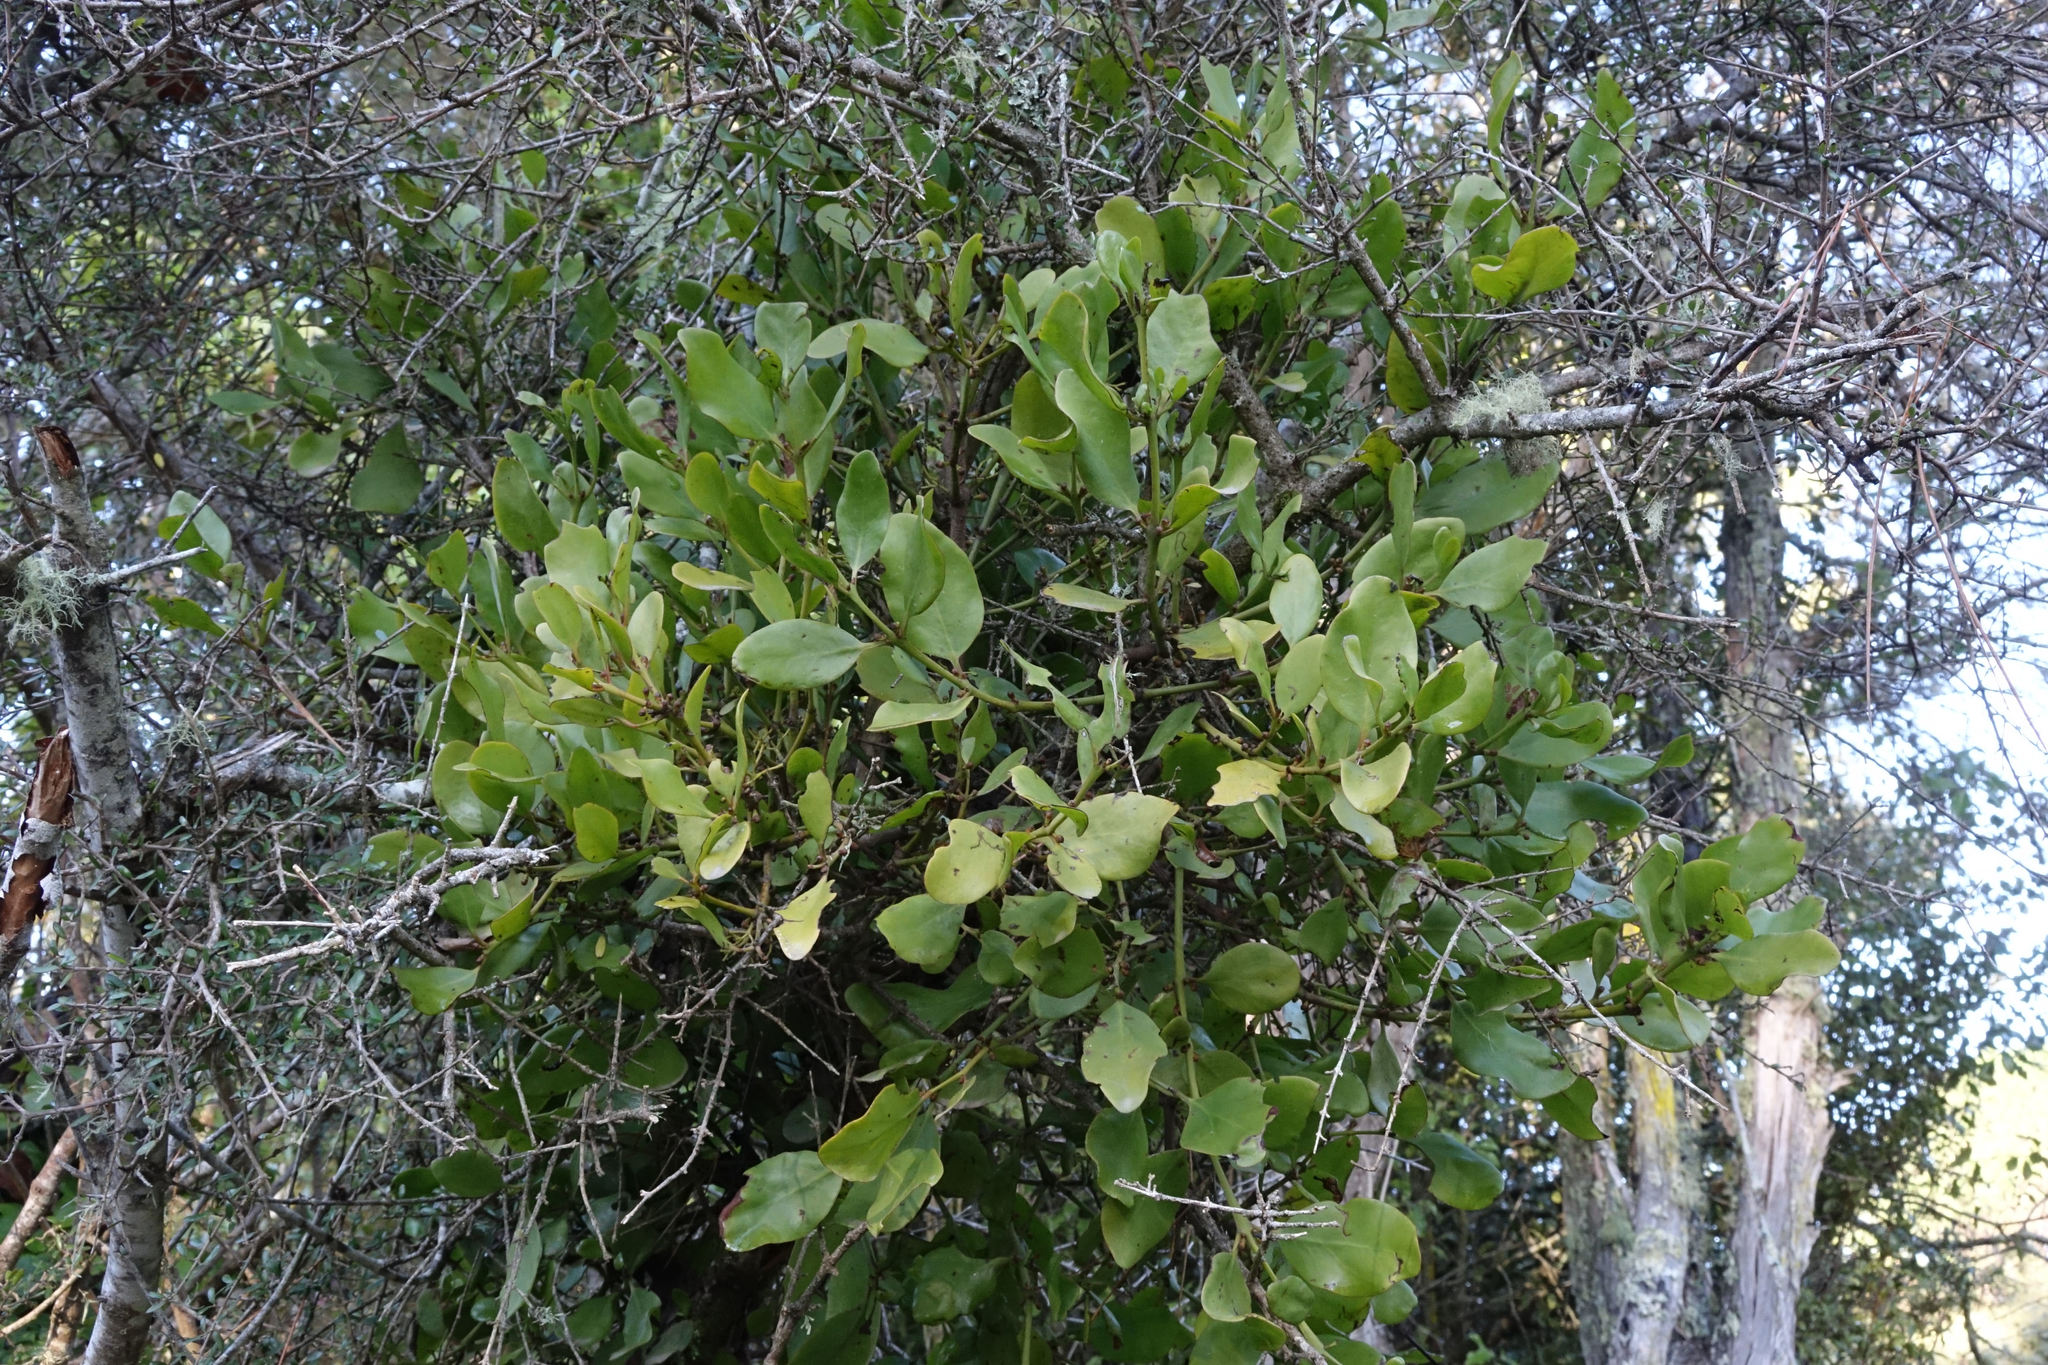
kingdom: Plantae
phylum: Tracheophyta
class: Magnoliopsida
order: Santalales
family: Loranthaceae
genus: Ileostylus
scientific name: Ileostylus micranthus
